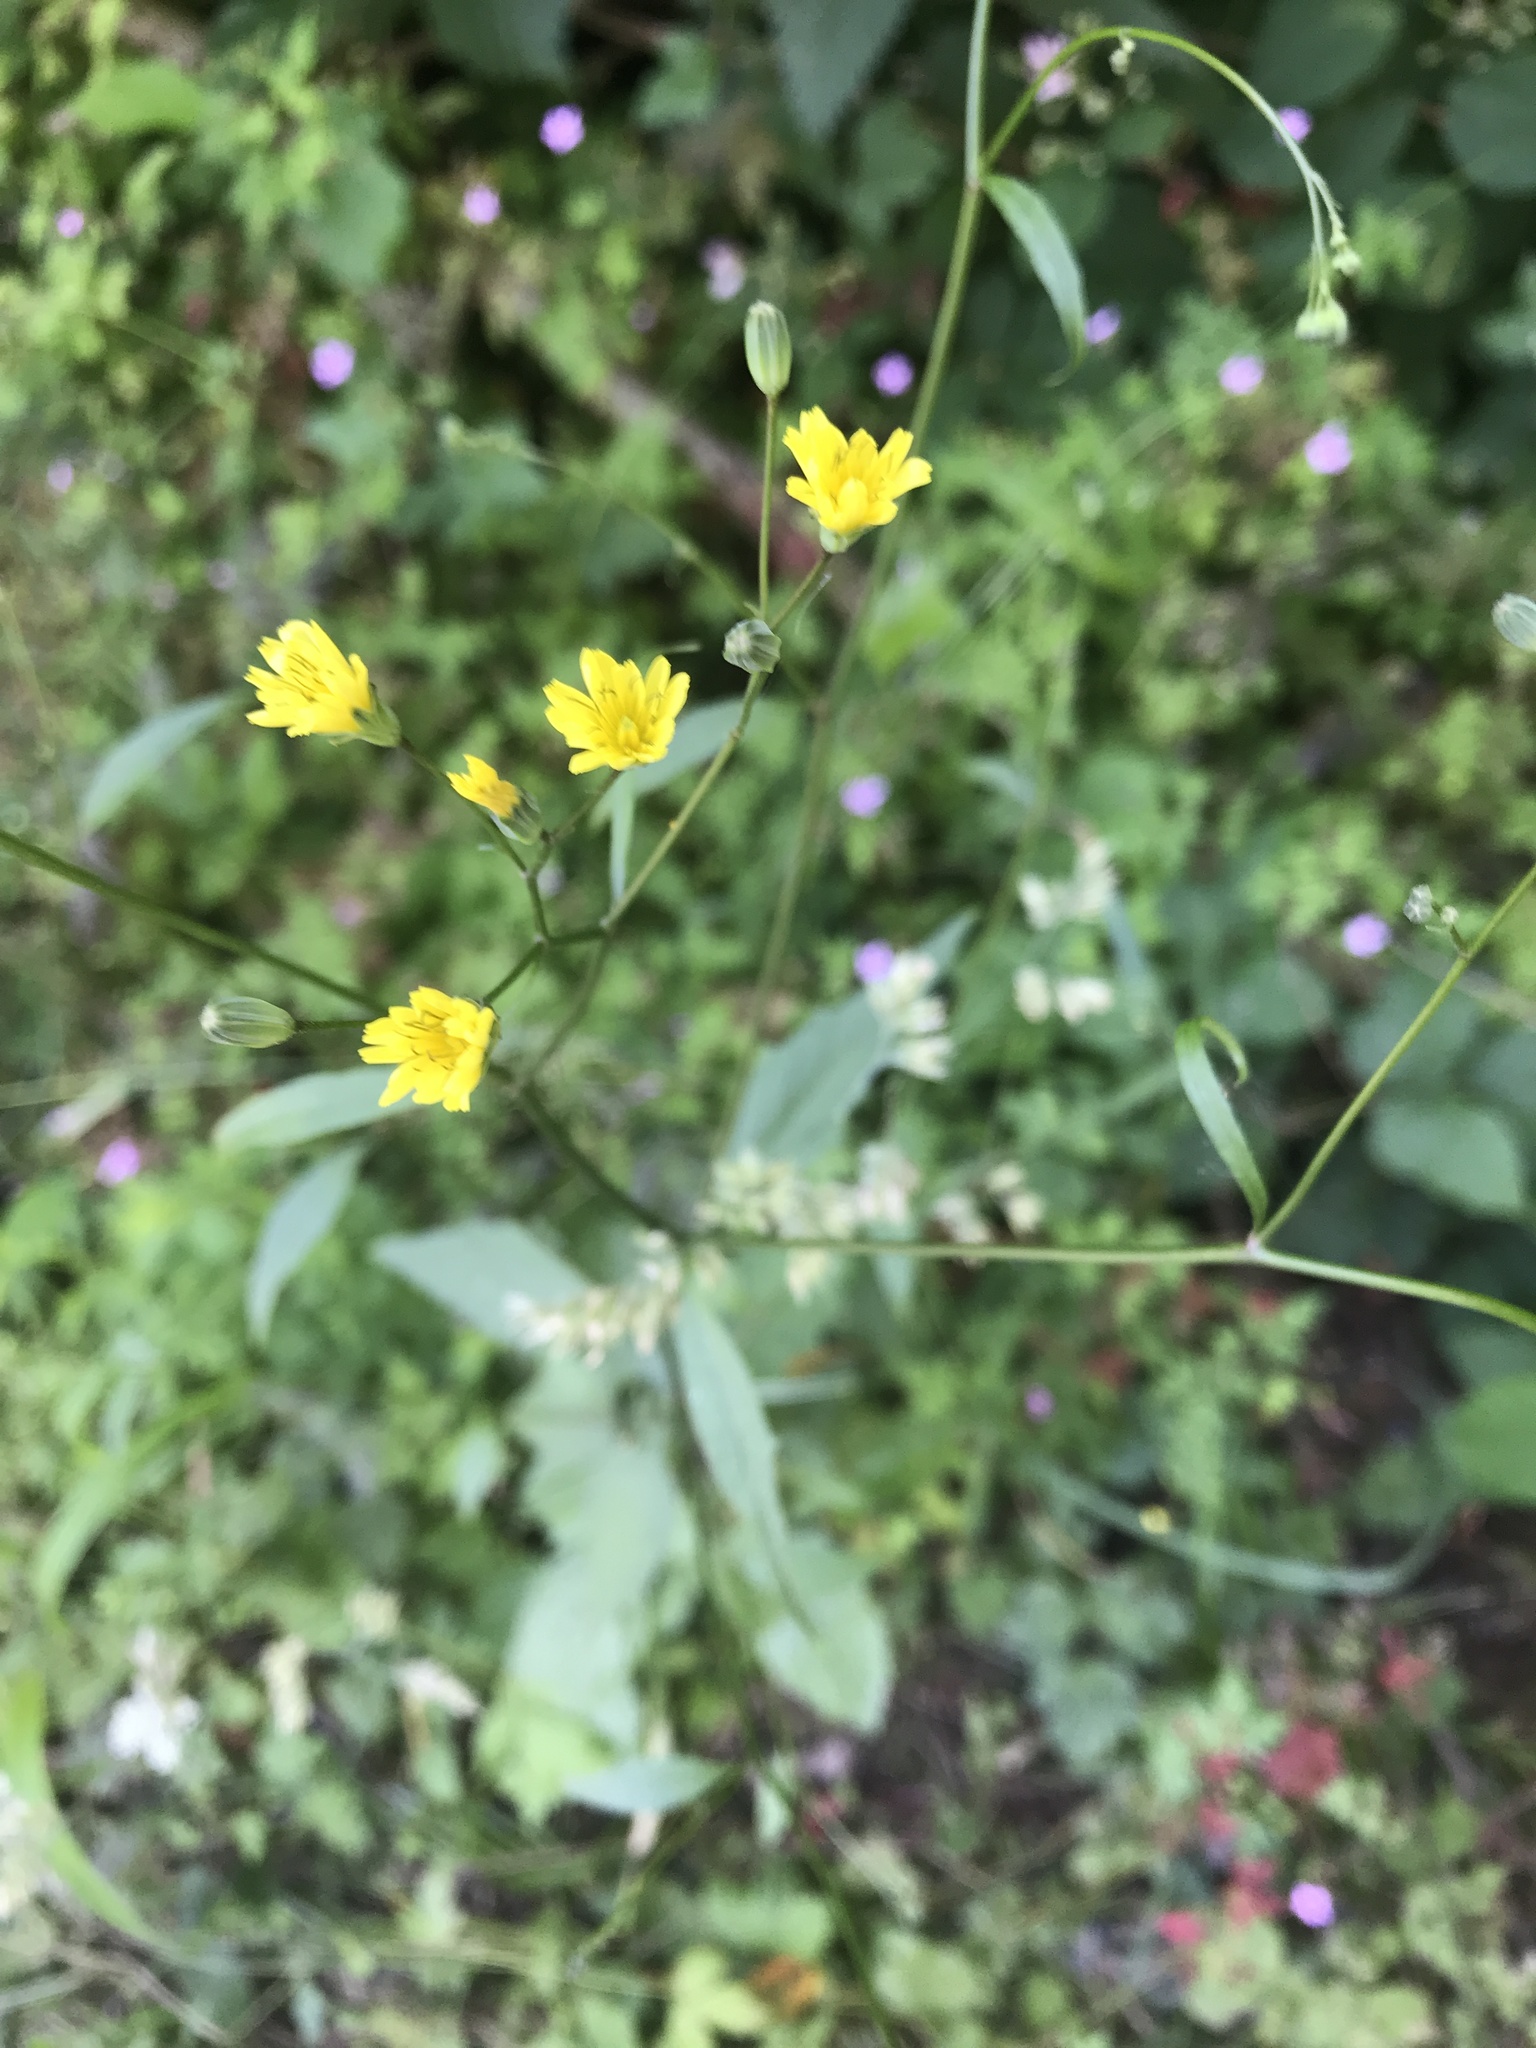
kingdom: Plantae
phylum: Tracheophyta
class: Magnoliopsida
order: Asterales
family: Asteraceae
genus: Lapsana
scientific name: Lapsana communis
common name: Nipplewort
